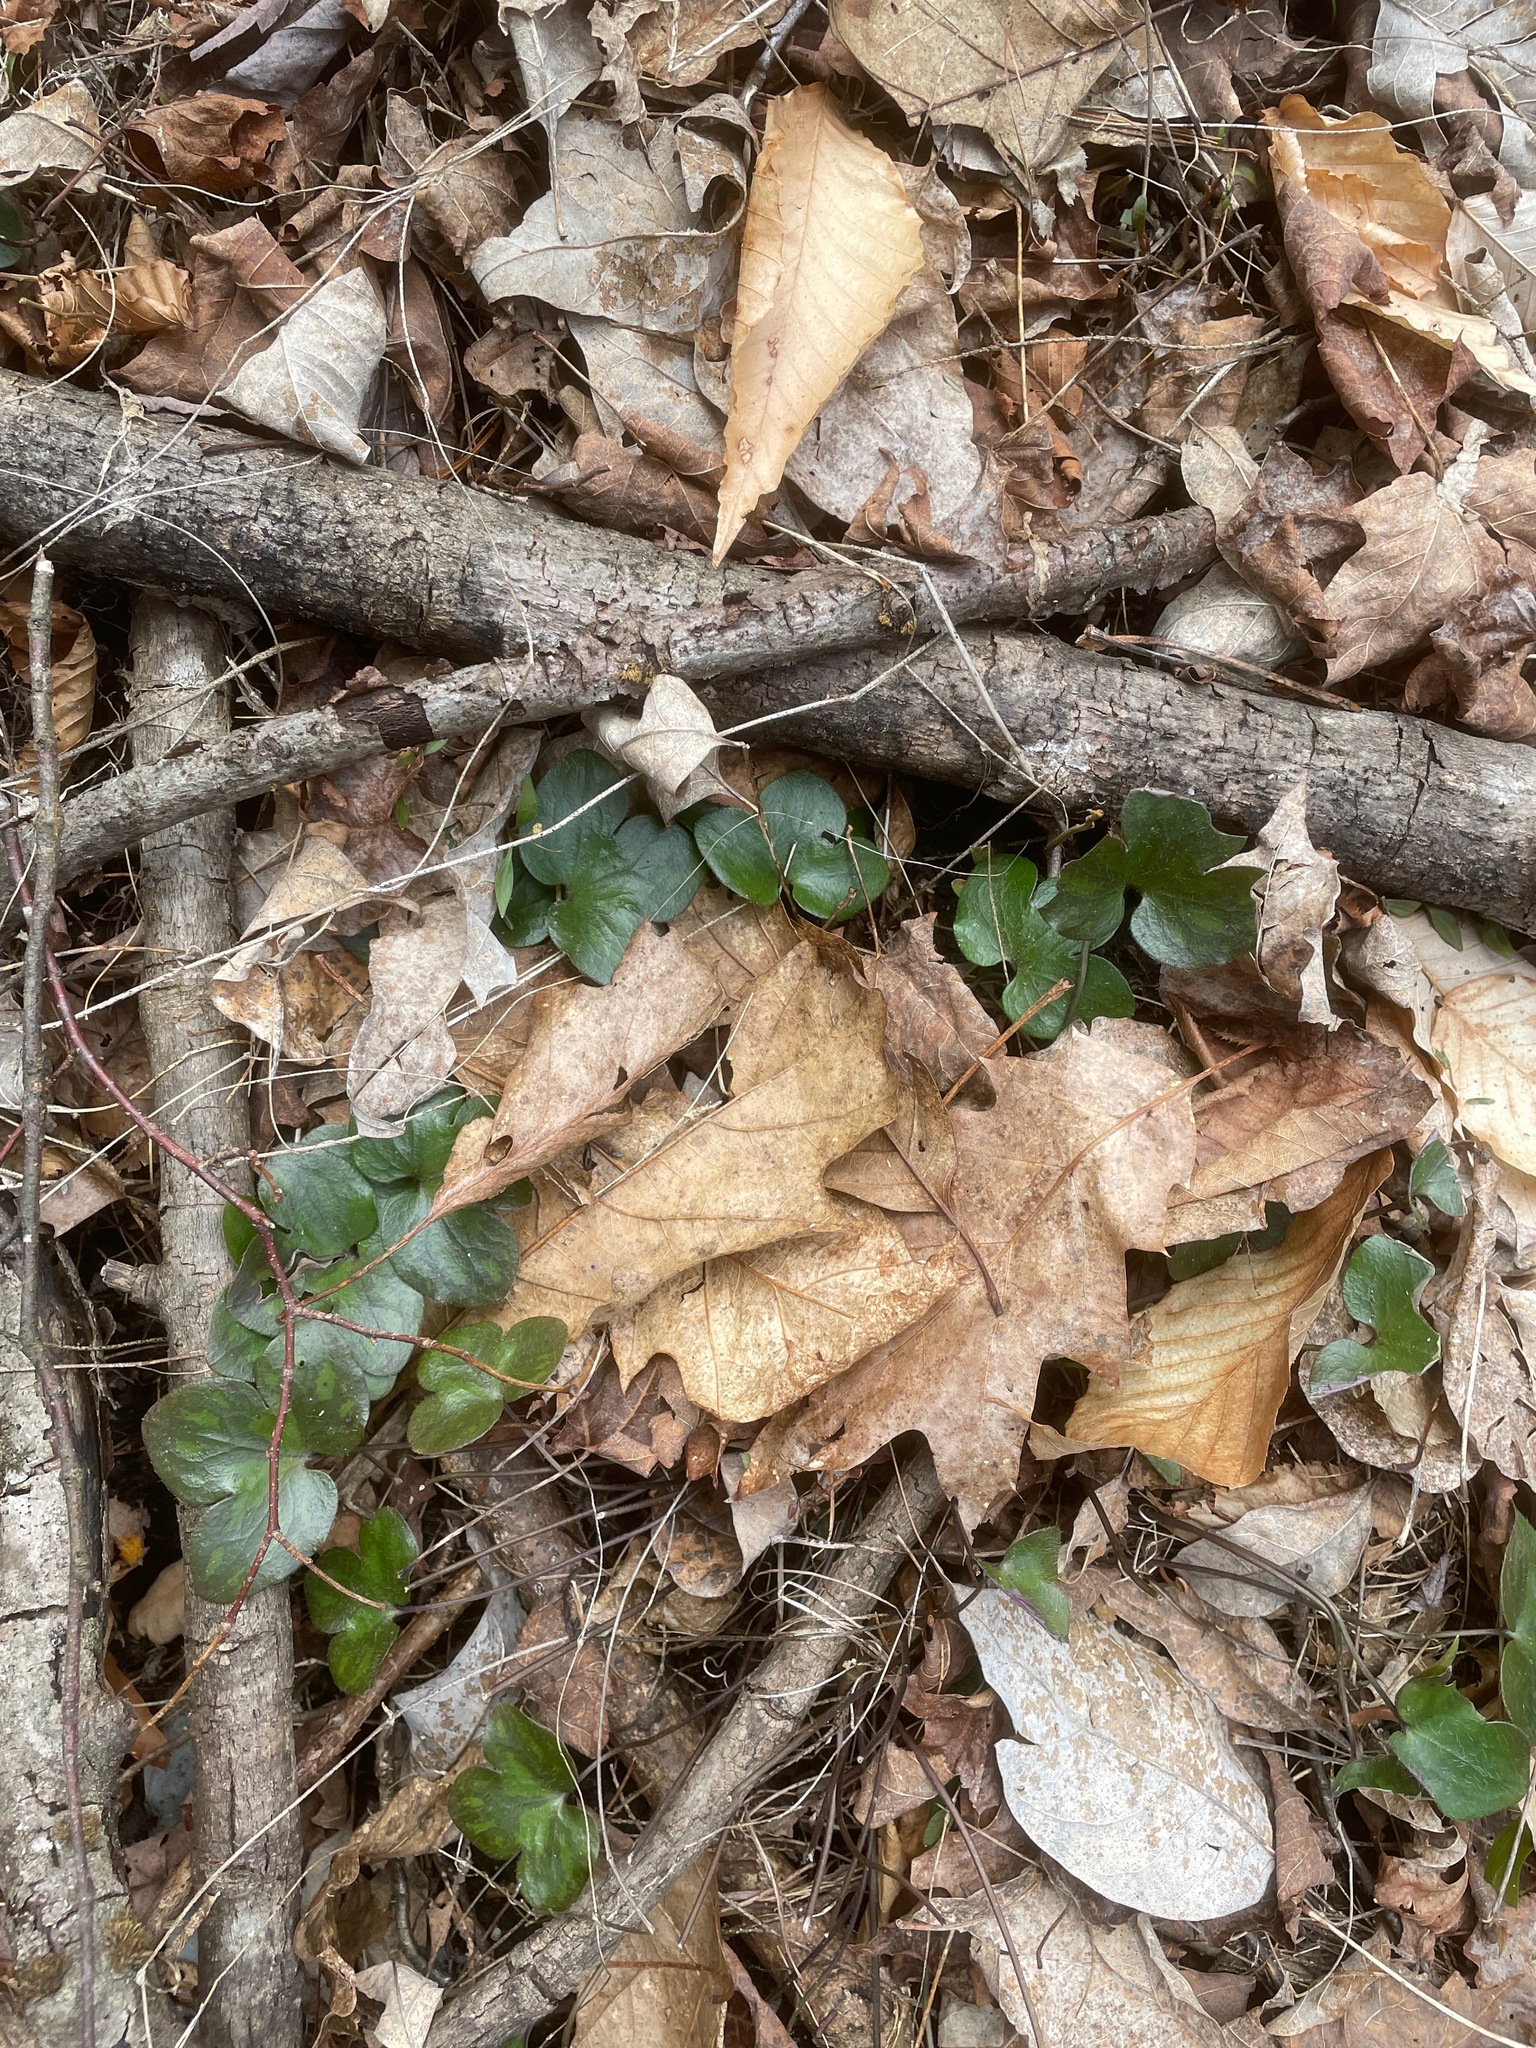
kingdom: Plantae
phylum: Tracheophyta
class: Magnoliopsida
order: Ranunculales
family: Ranunculaceae
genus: Hepatica
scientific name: Hepatica americana
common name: American hepatica
